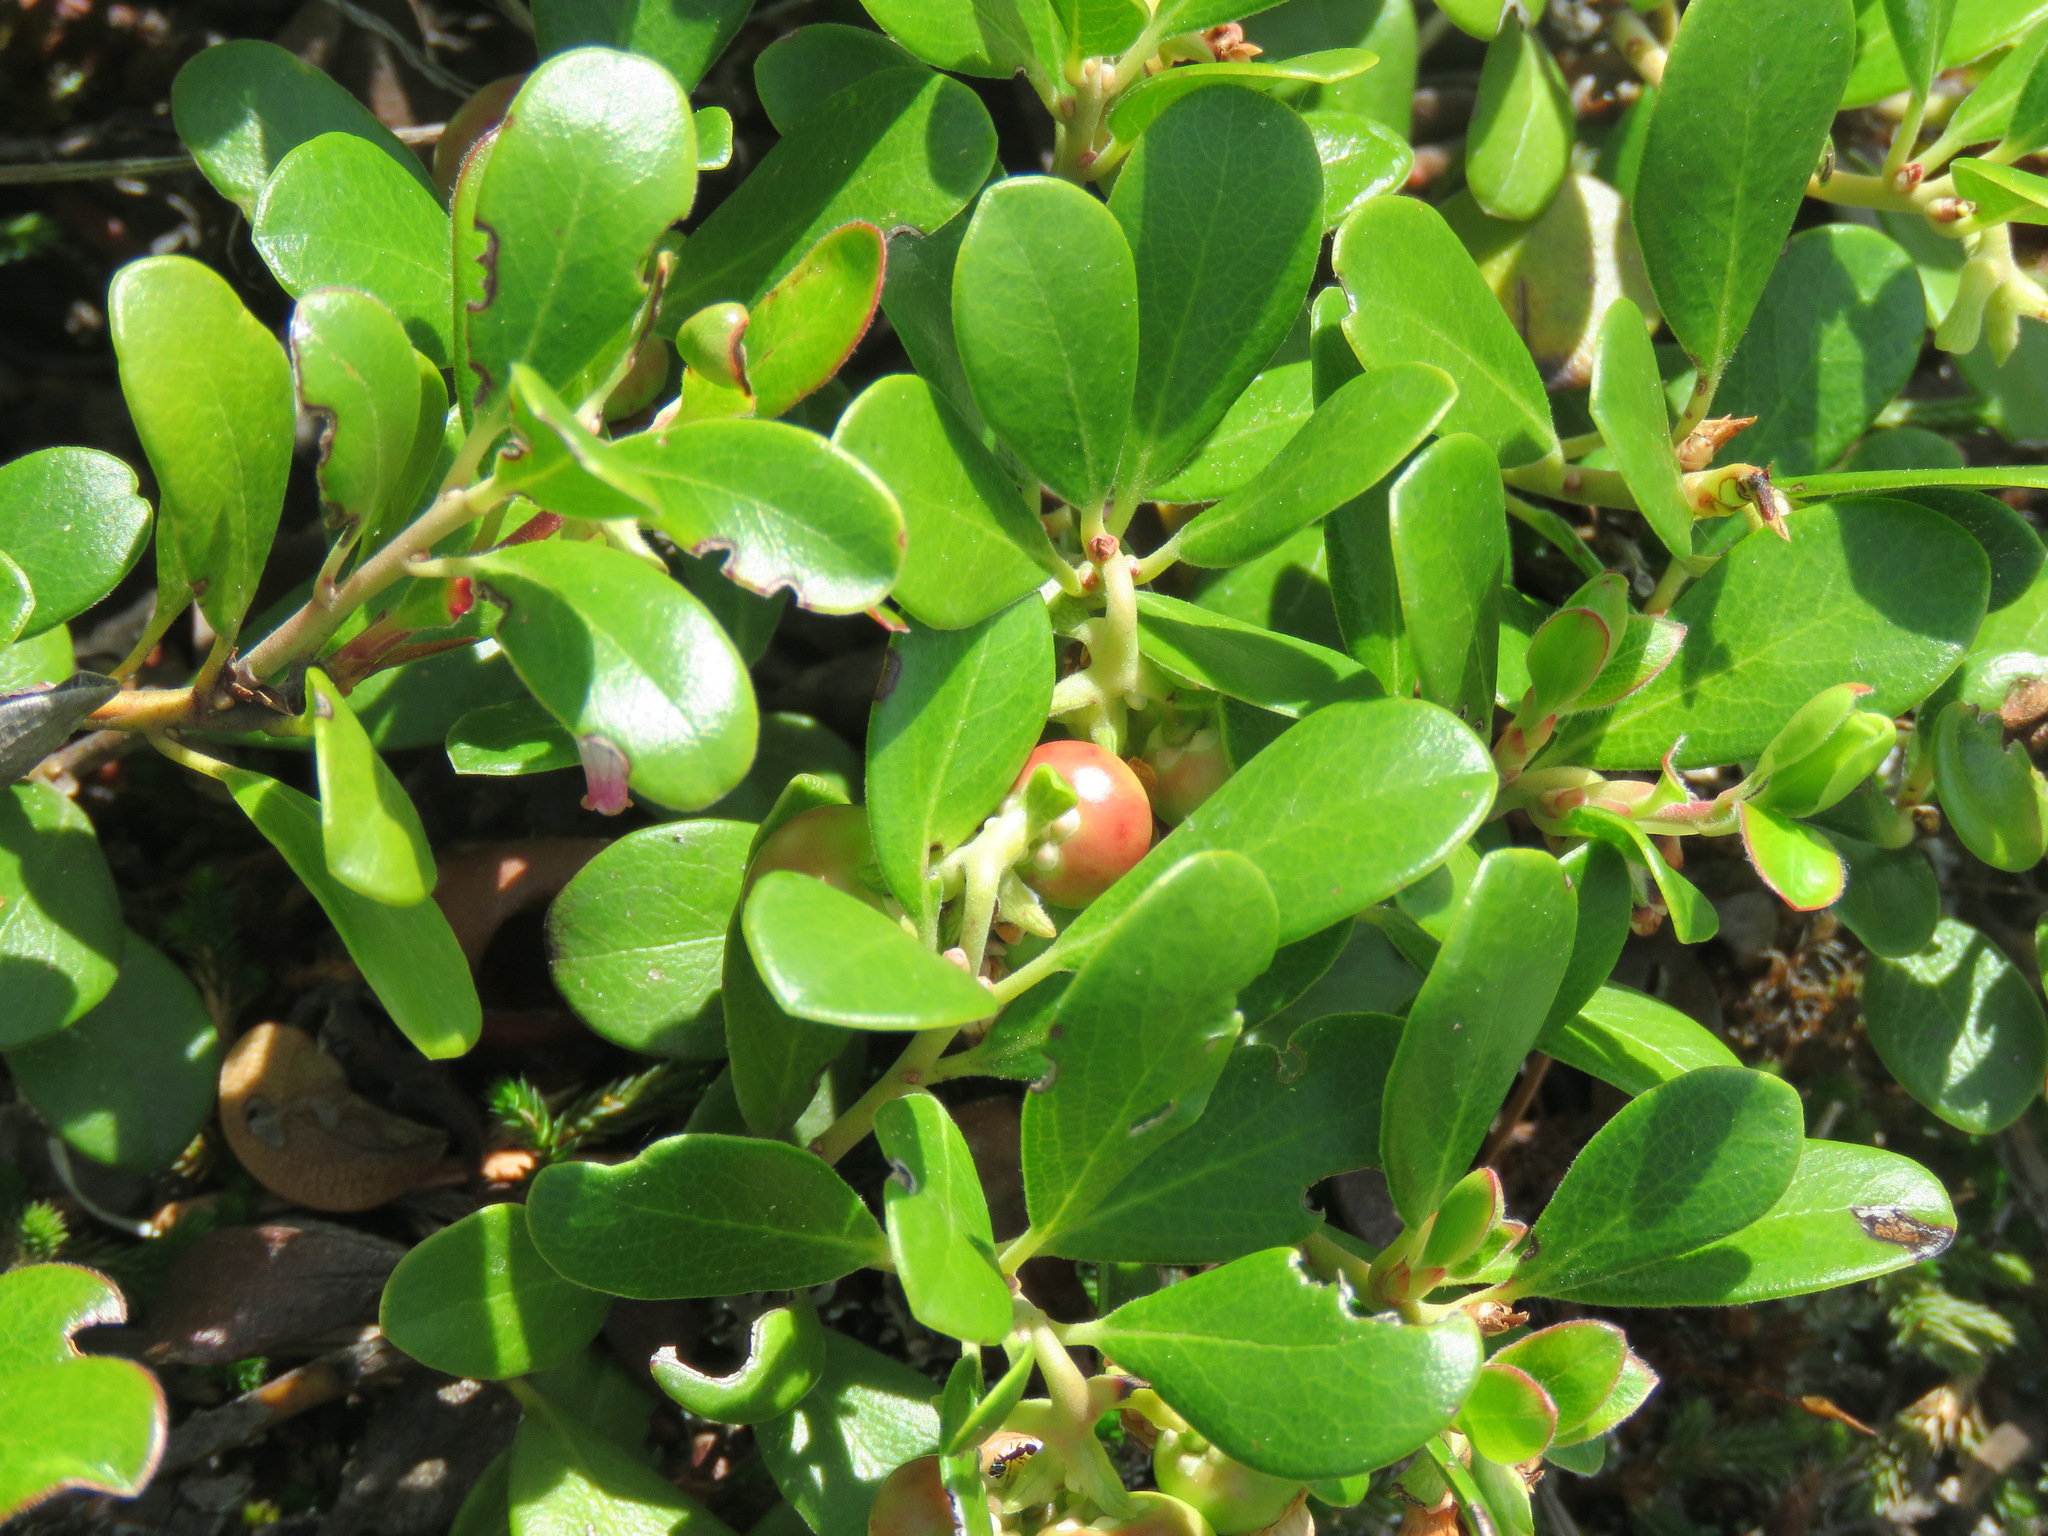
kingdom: Plantae
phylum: Tracheophyta
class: Magnoliopsida
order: Ericales
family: Ericaceae
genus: Arctostaphylos
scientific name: Arctostaphylos uva-ursi
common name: Bearberry
